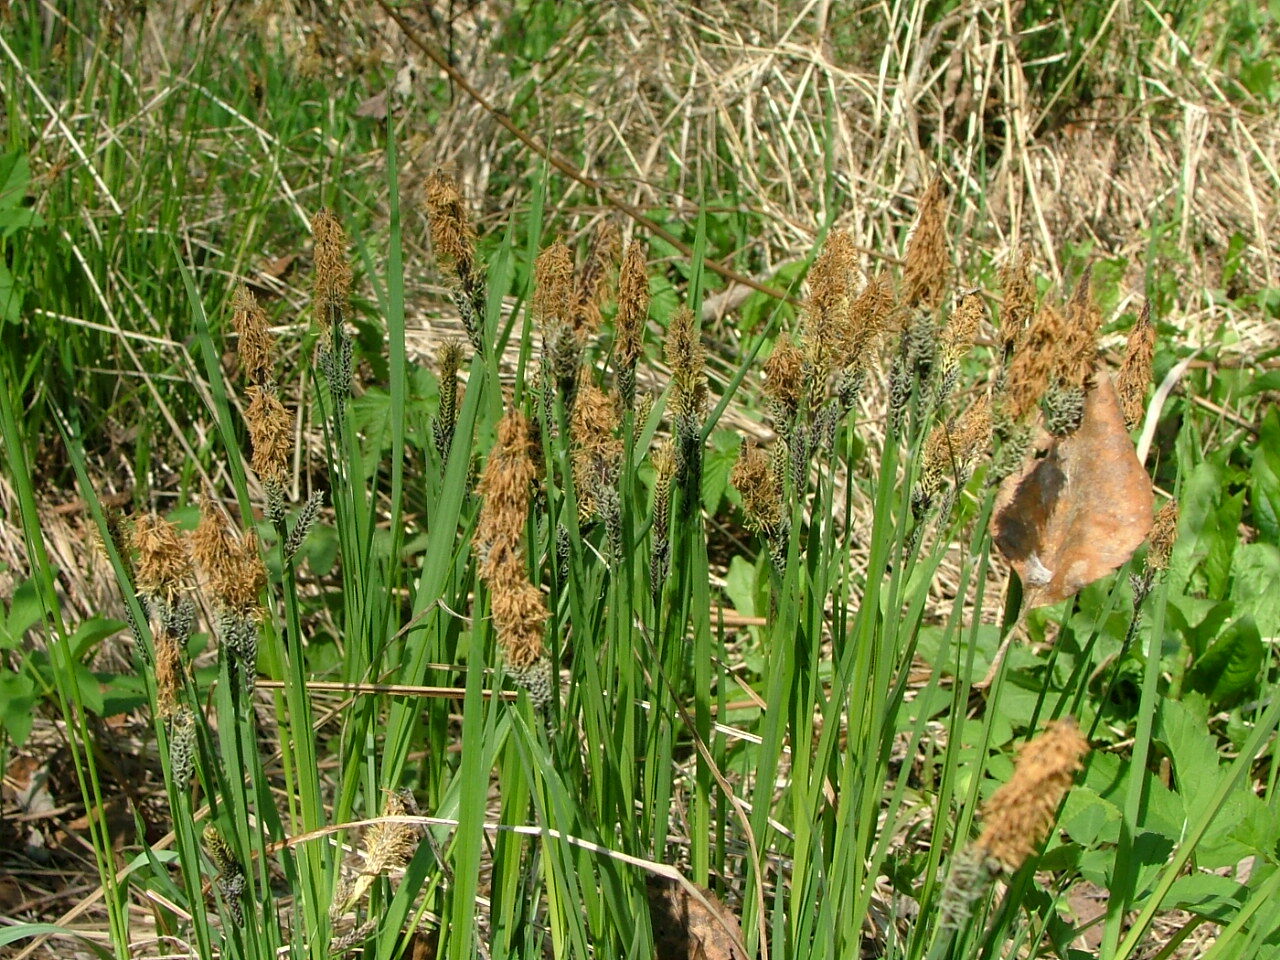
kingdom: Plantae
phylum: Tracheophyta
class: Liliopsida
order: Poales
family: Cyperaceae
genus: Carex
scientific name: Carex cespitosa
